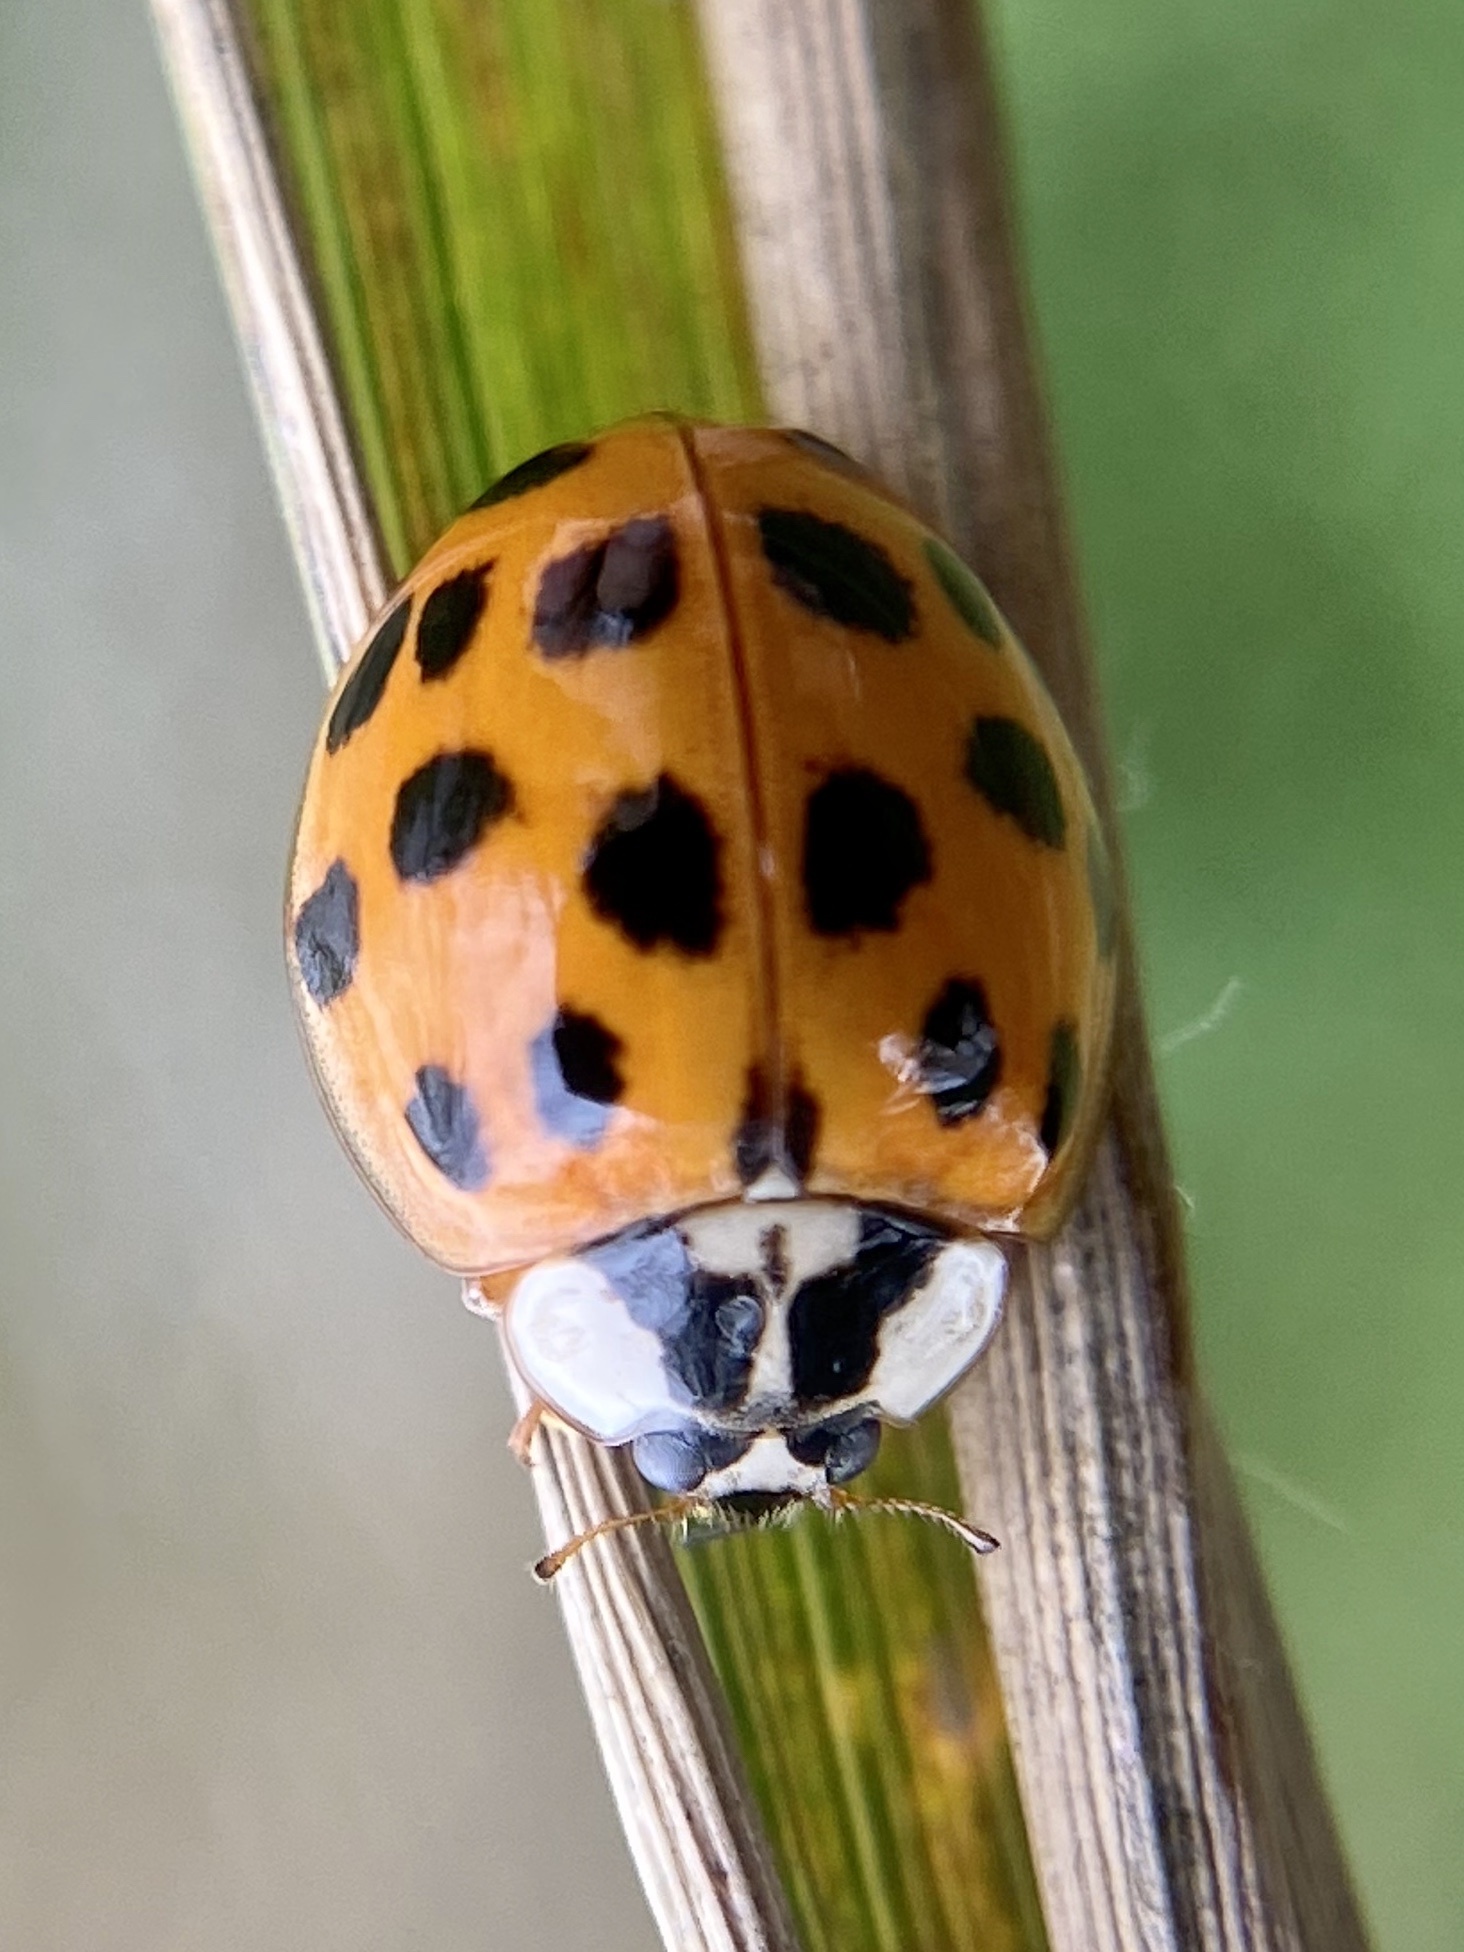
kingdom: Animalia
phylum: Arthropoda
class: Insecta
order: Coleoptera
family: Coccinellidae
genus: Harmonia
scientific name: Harmonia axyridis
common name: Harlequin ladybird
